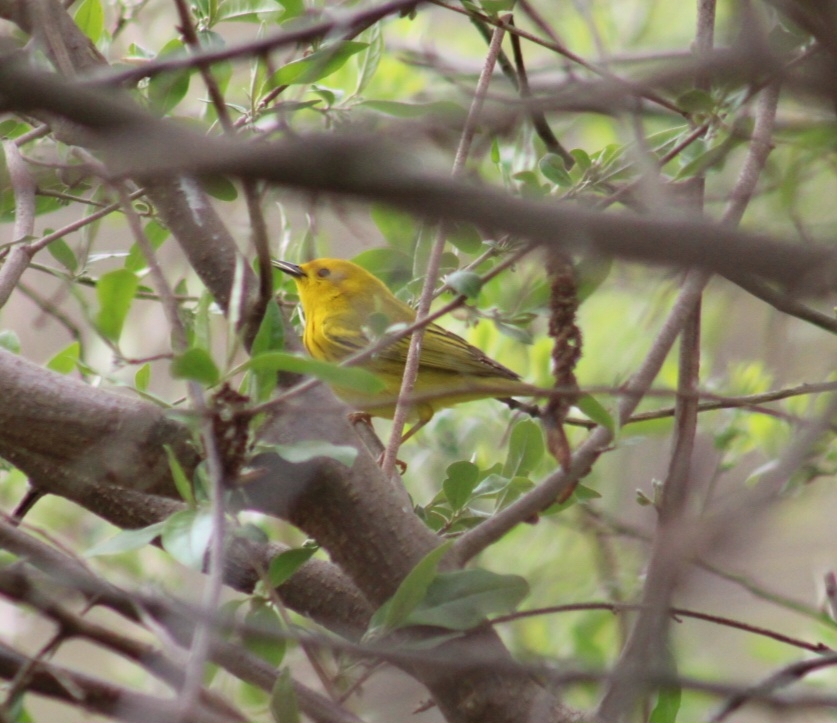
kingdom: Animalia
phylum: Chordata
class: Aves
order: Passeriformes
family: Parulidae
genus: Setophaga
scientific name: Setophaga petechia
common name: Yellow warbler
